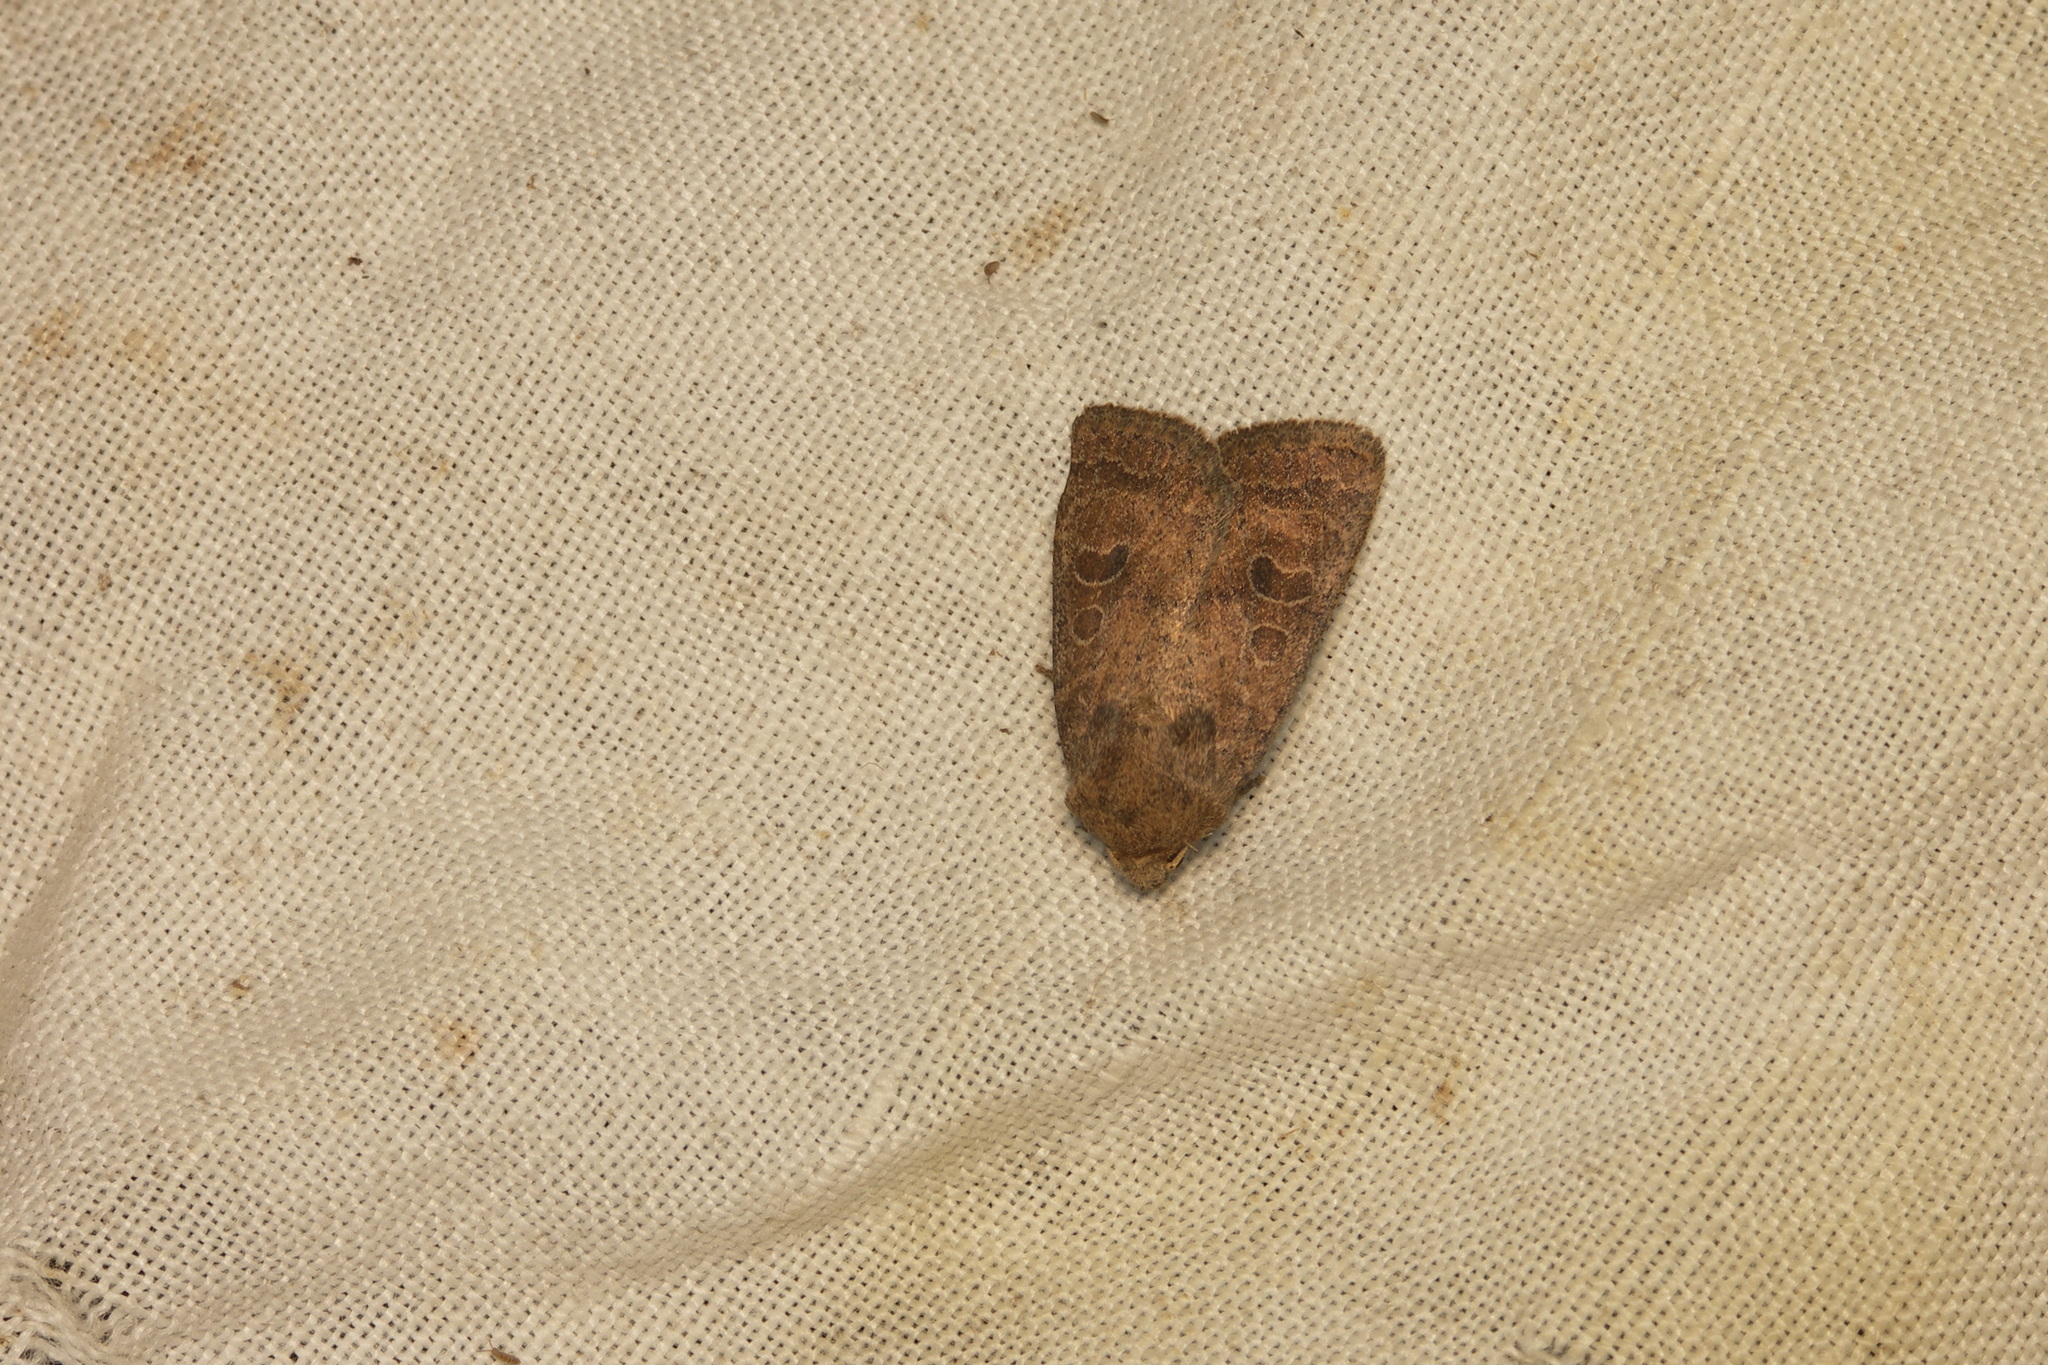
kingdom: Animalia
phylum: Arthropoda
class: Insecta
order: Lepidoptera
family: Noctuidae
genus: Hoplodrina
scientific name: Hoplodrina blanda
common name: Rustic
